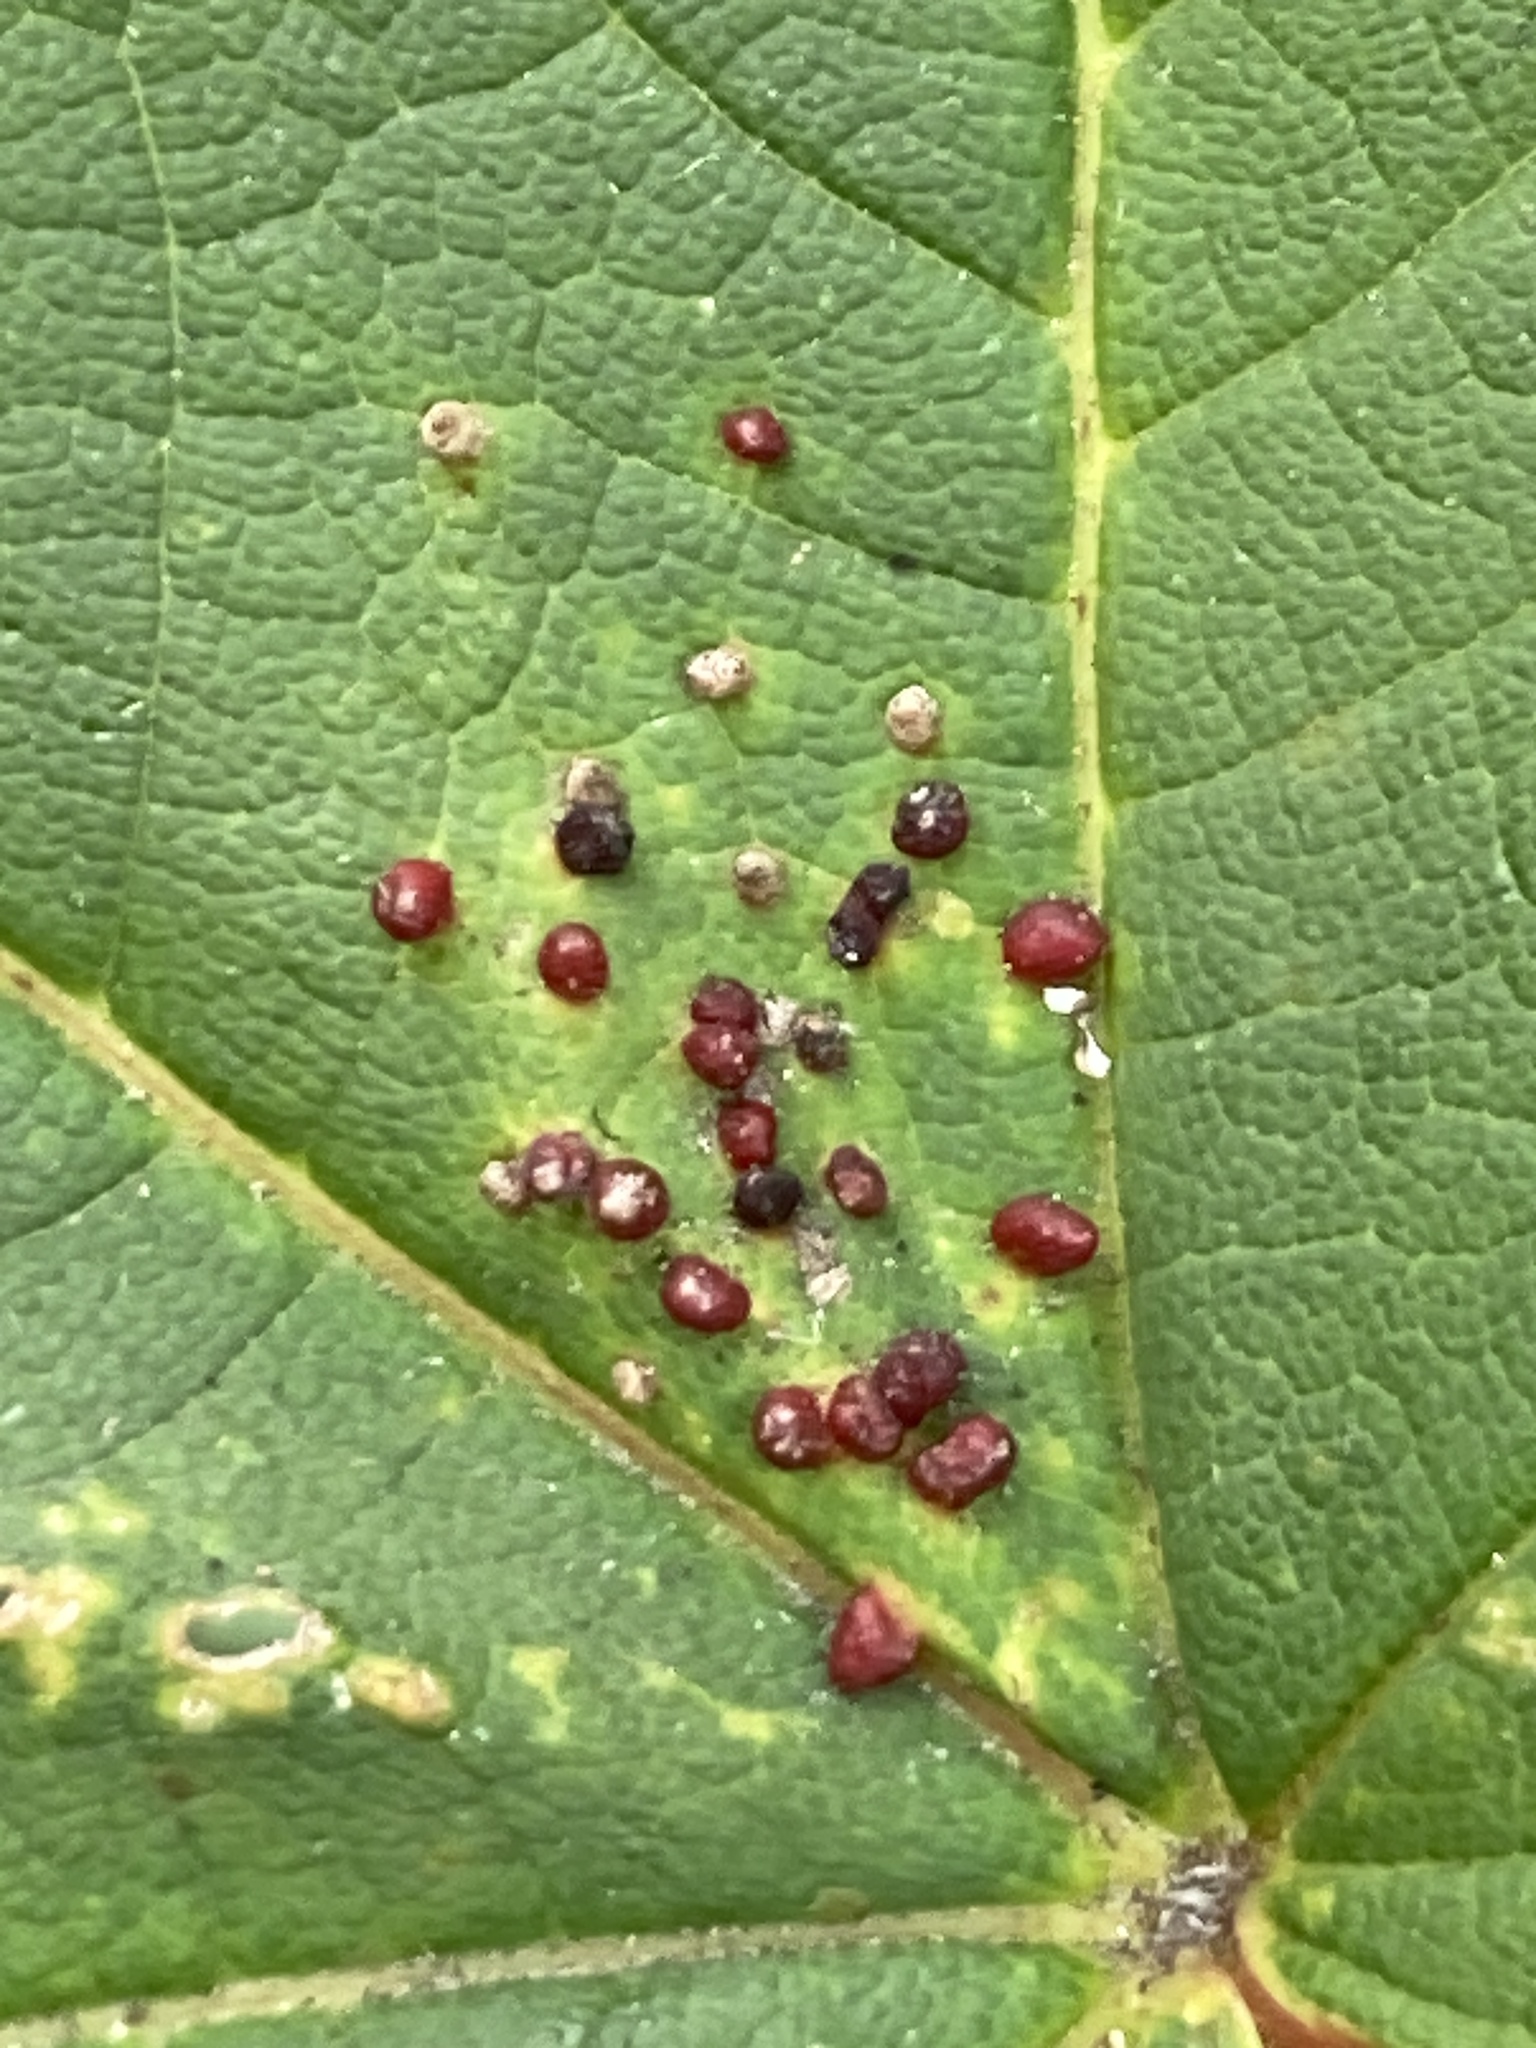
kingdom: Animalia
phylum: Arthropoda
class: Arachnida
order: Trombidiformes
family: Eriophyidae
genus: Aceria
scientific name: Aceria cephaloneus
